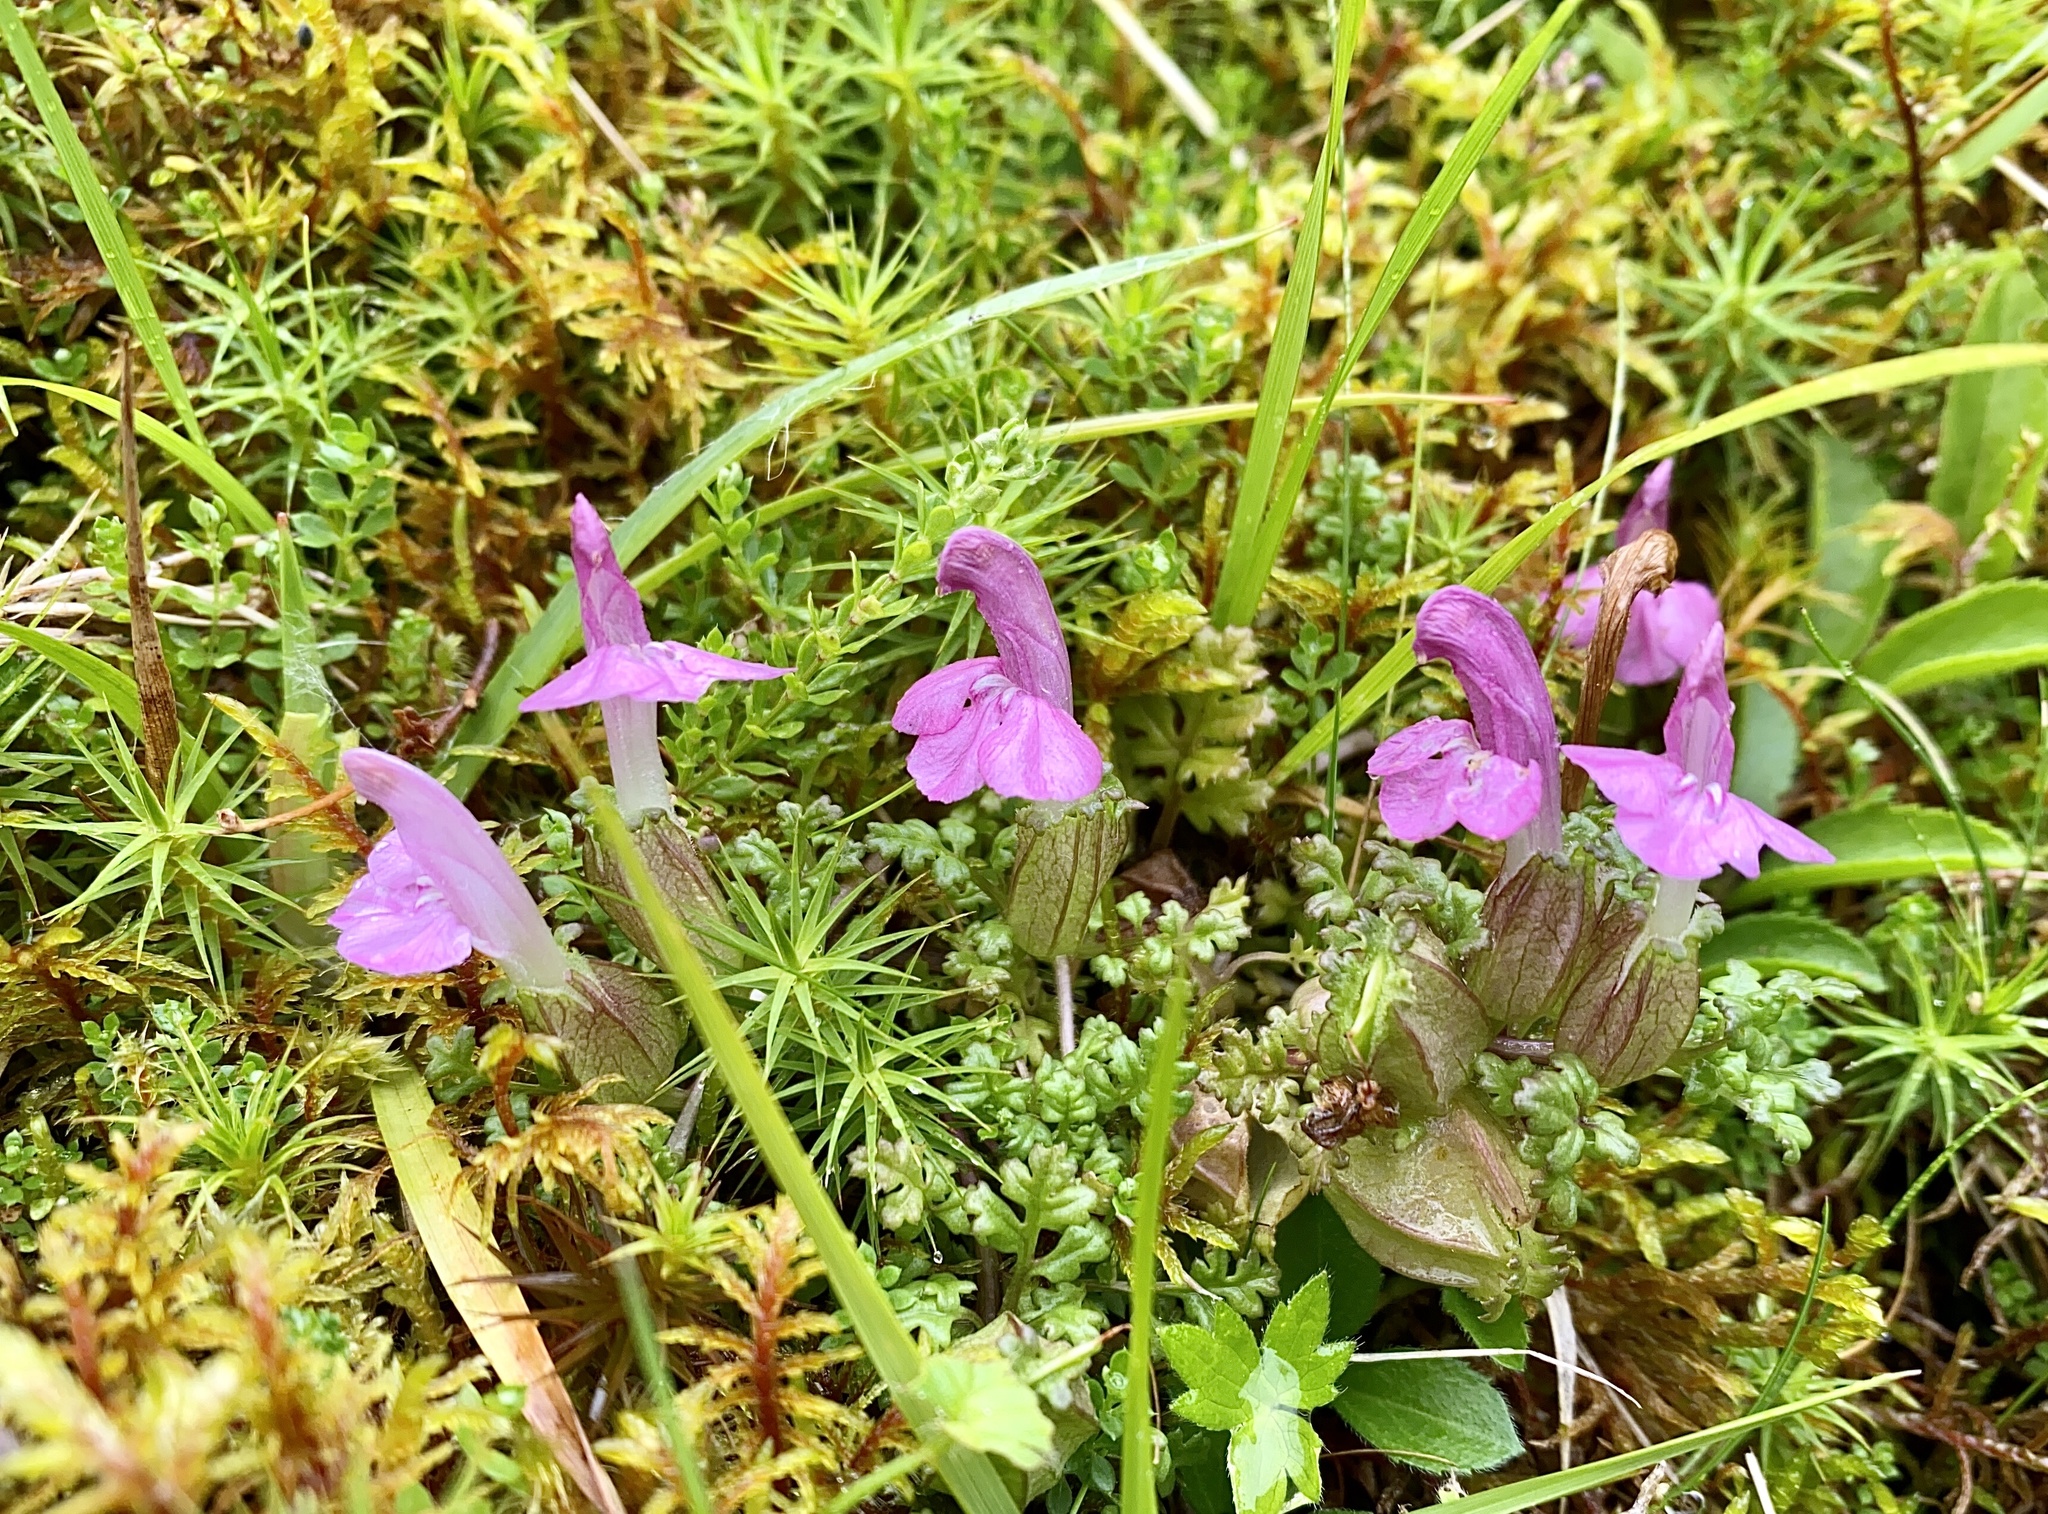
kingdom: Plantae
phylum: Tracheophyta
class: Magnoliopsida
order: Lamiales
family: Orobanchaceae
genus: Pedicularis
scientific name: Pedicularis sylvatica
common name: Lousewort
